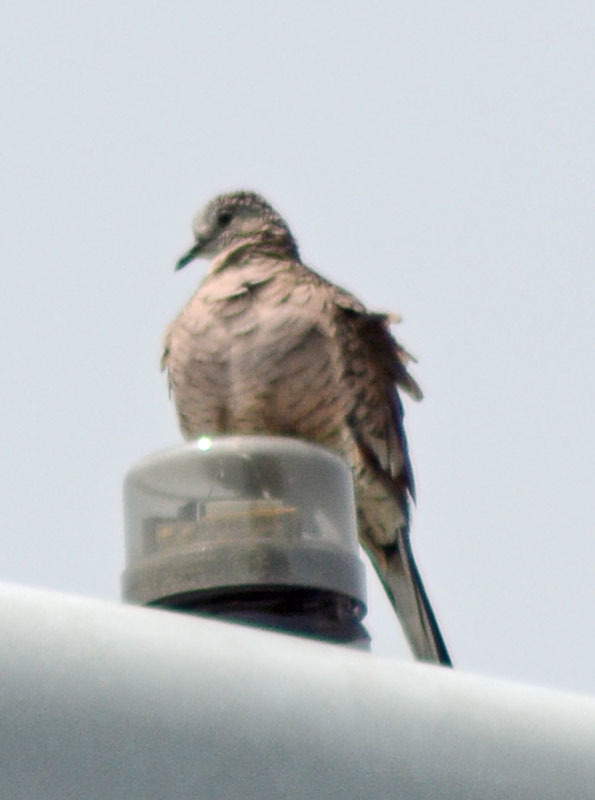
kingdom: Animalia
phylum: Chordata
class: Aves
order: Columbiformes
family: Columbidae
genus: Columbina
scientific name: Columbina inca
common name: Inca dove
